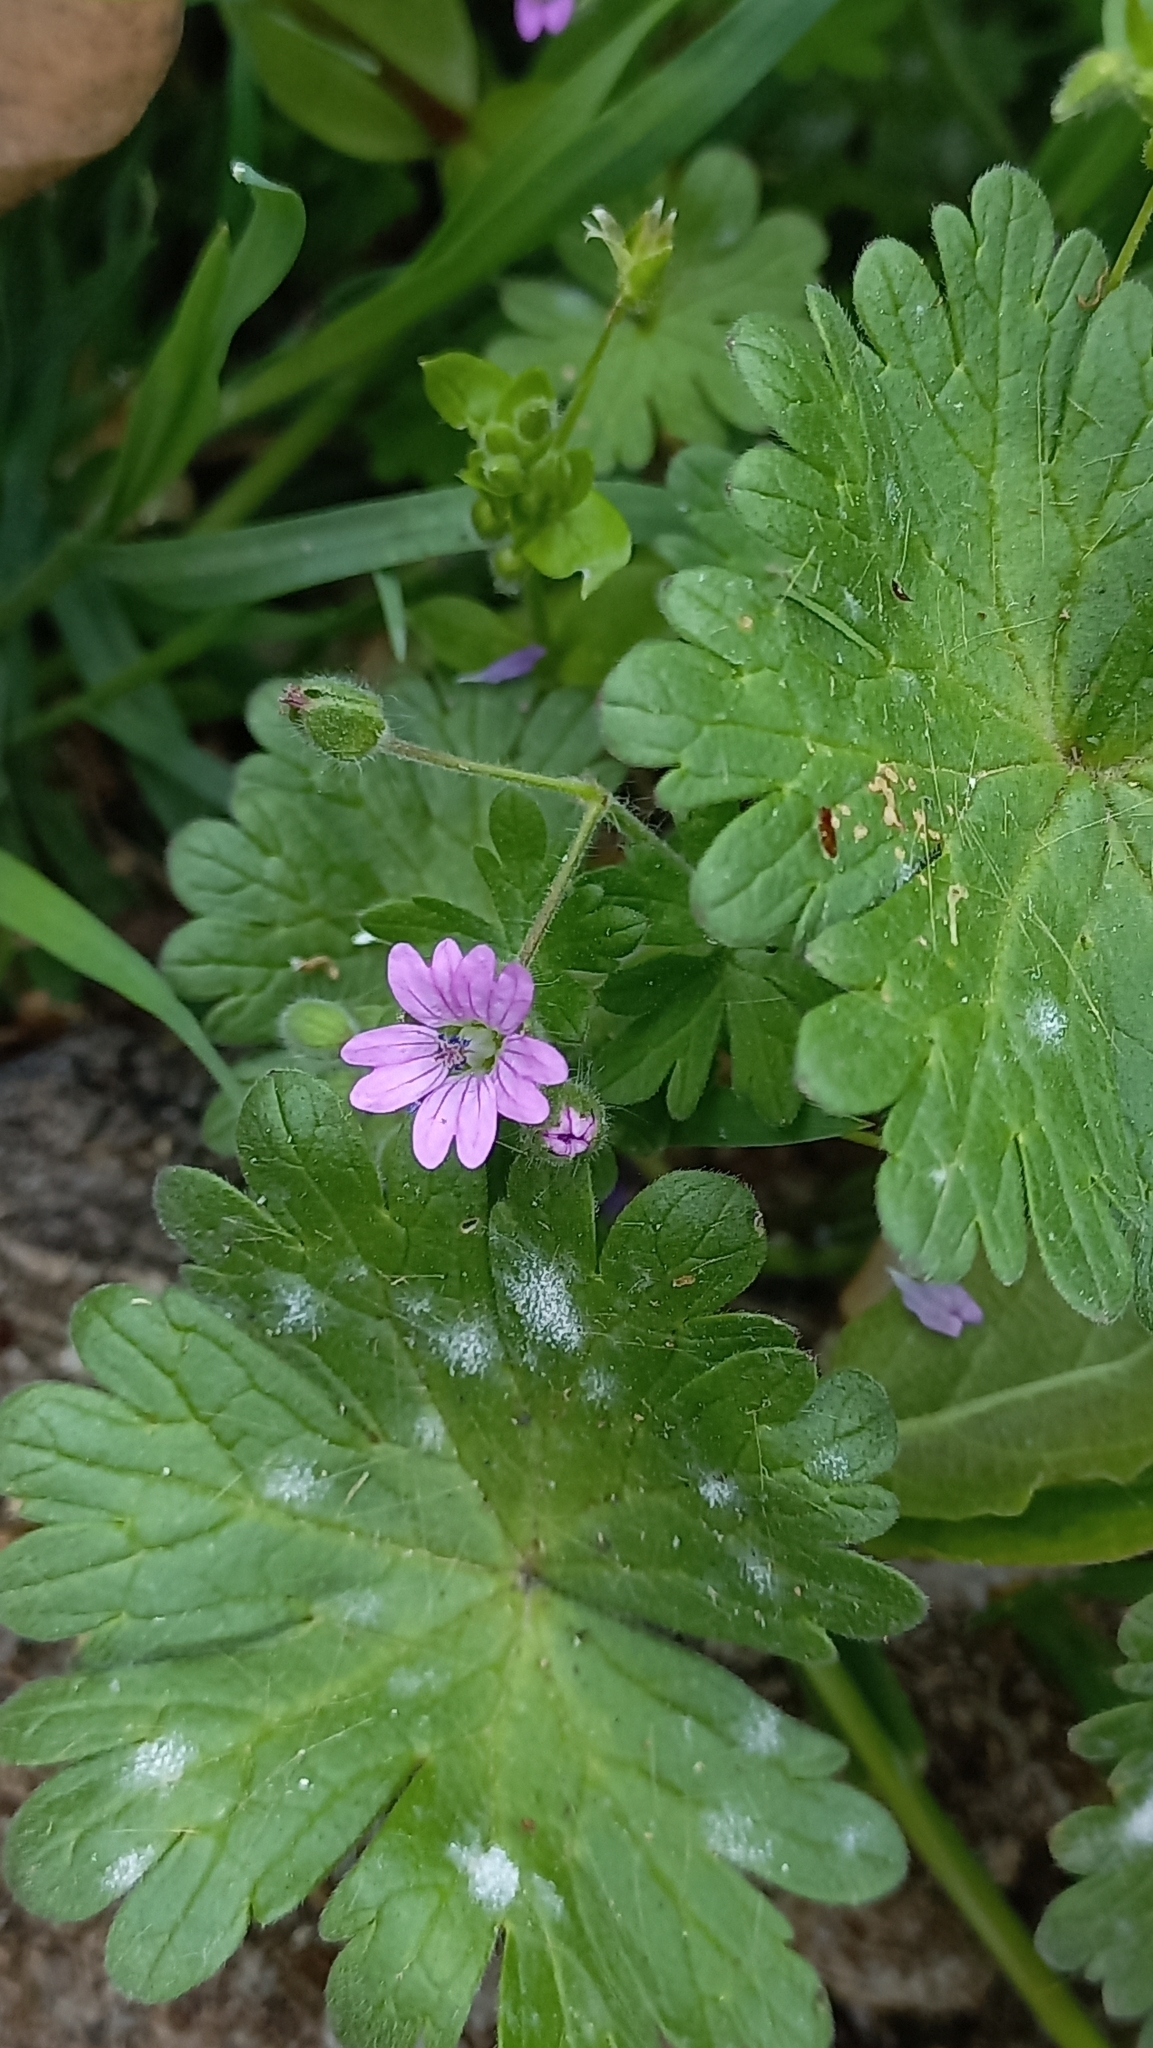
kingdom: Plantae
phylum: Tracheophyta
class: Magnoliopsida
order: Geraniales
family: Geraniaceae
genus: Geranium
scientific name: Geranium molle
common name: Dove's-foot crane's-bill
